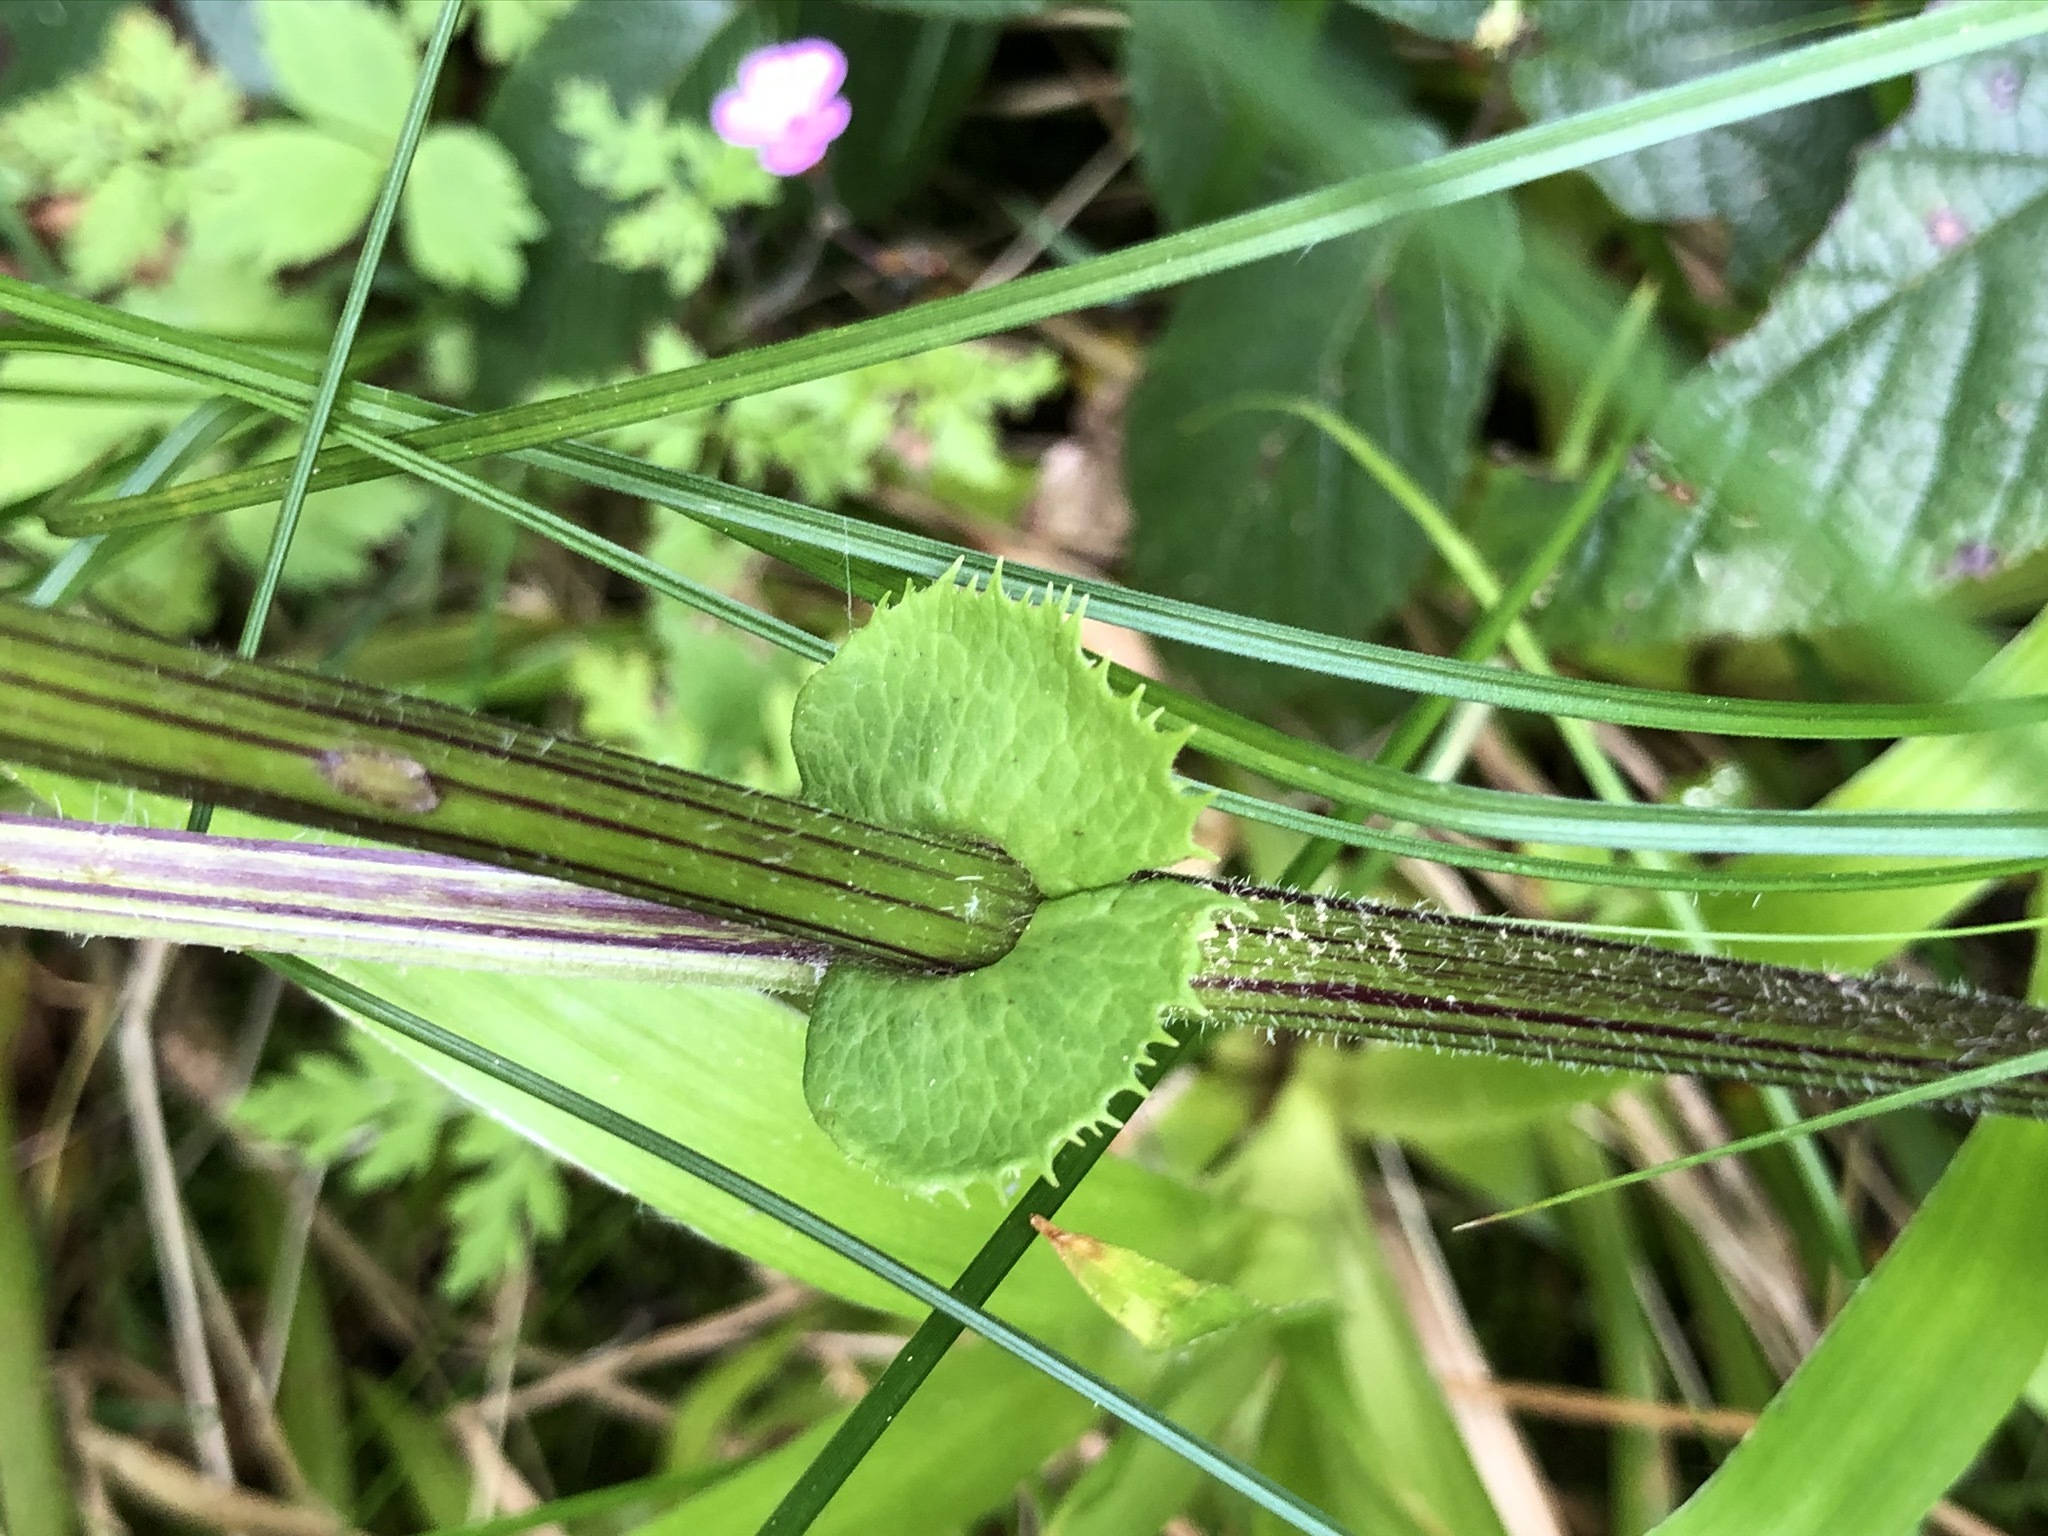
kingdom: Plantae
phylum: Tracheophyta
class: Magnoliopsida
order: Asterales
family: Asteraceae
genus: Adenostyles
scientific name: Adenostyles alliariae
